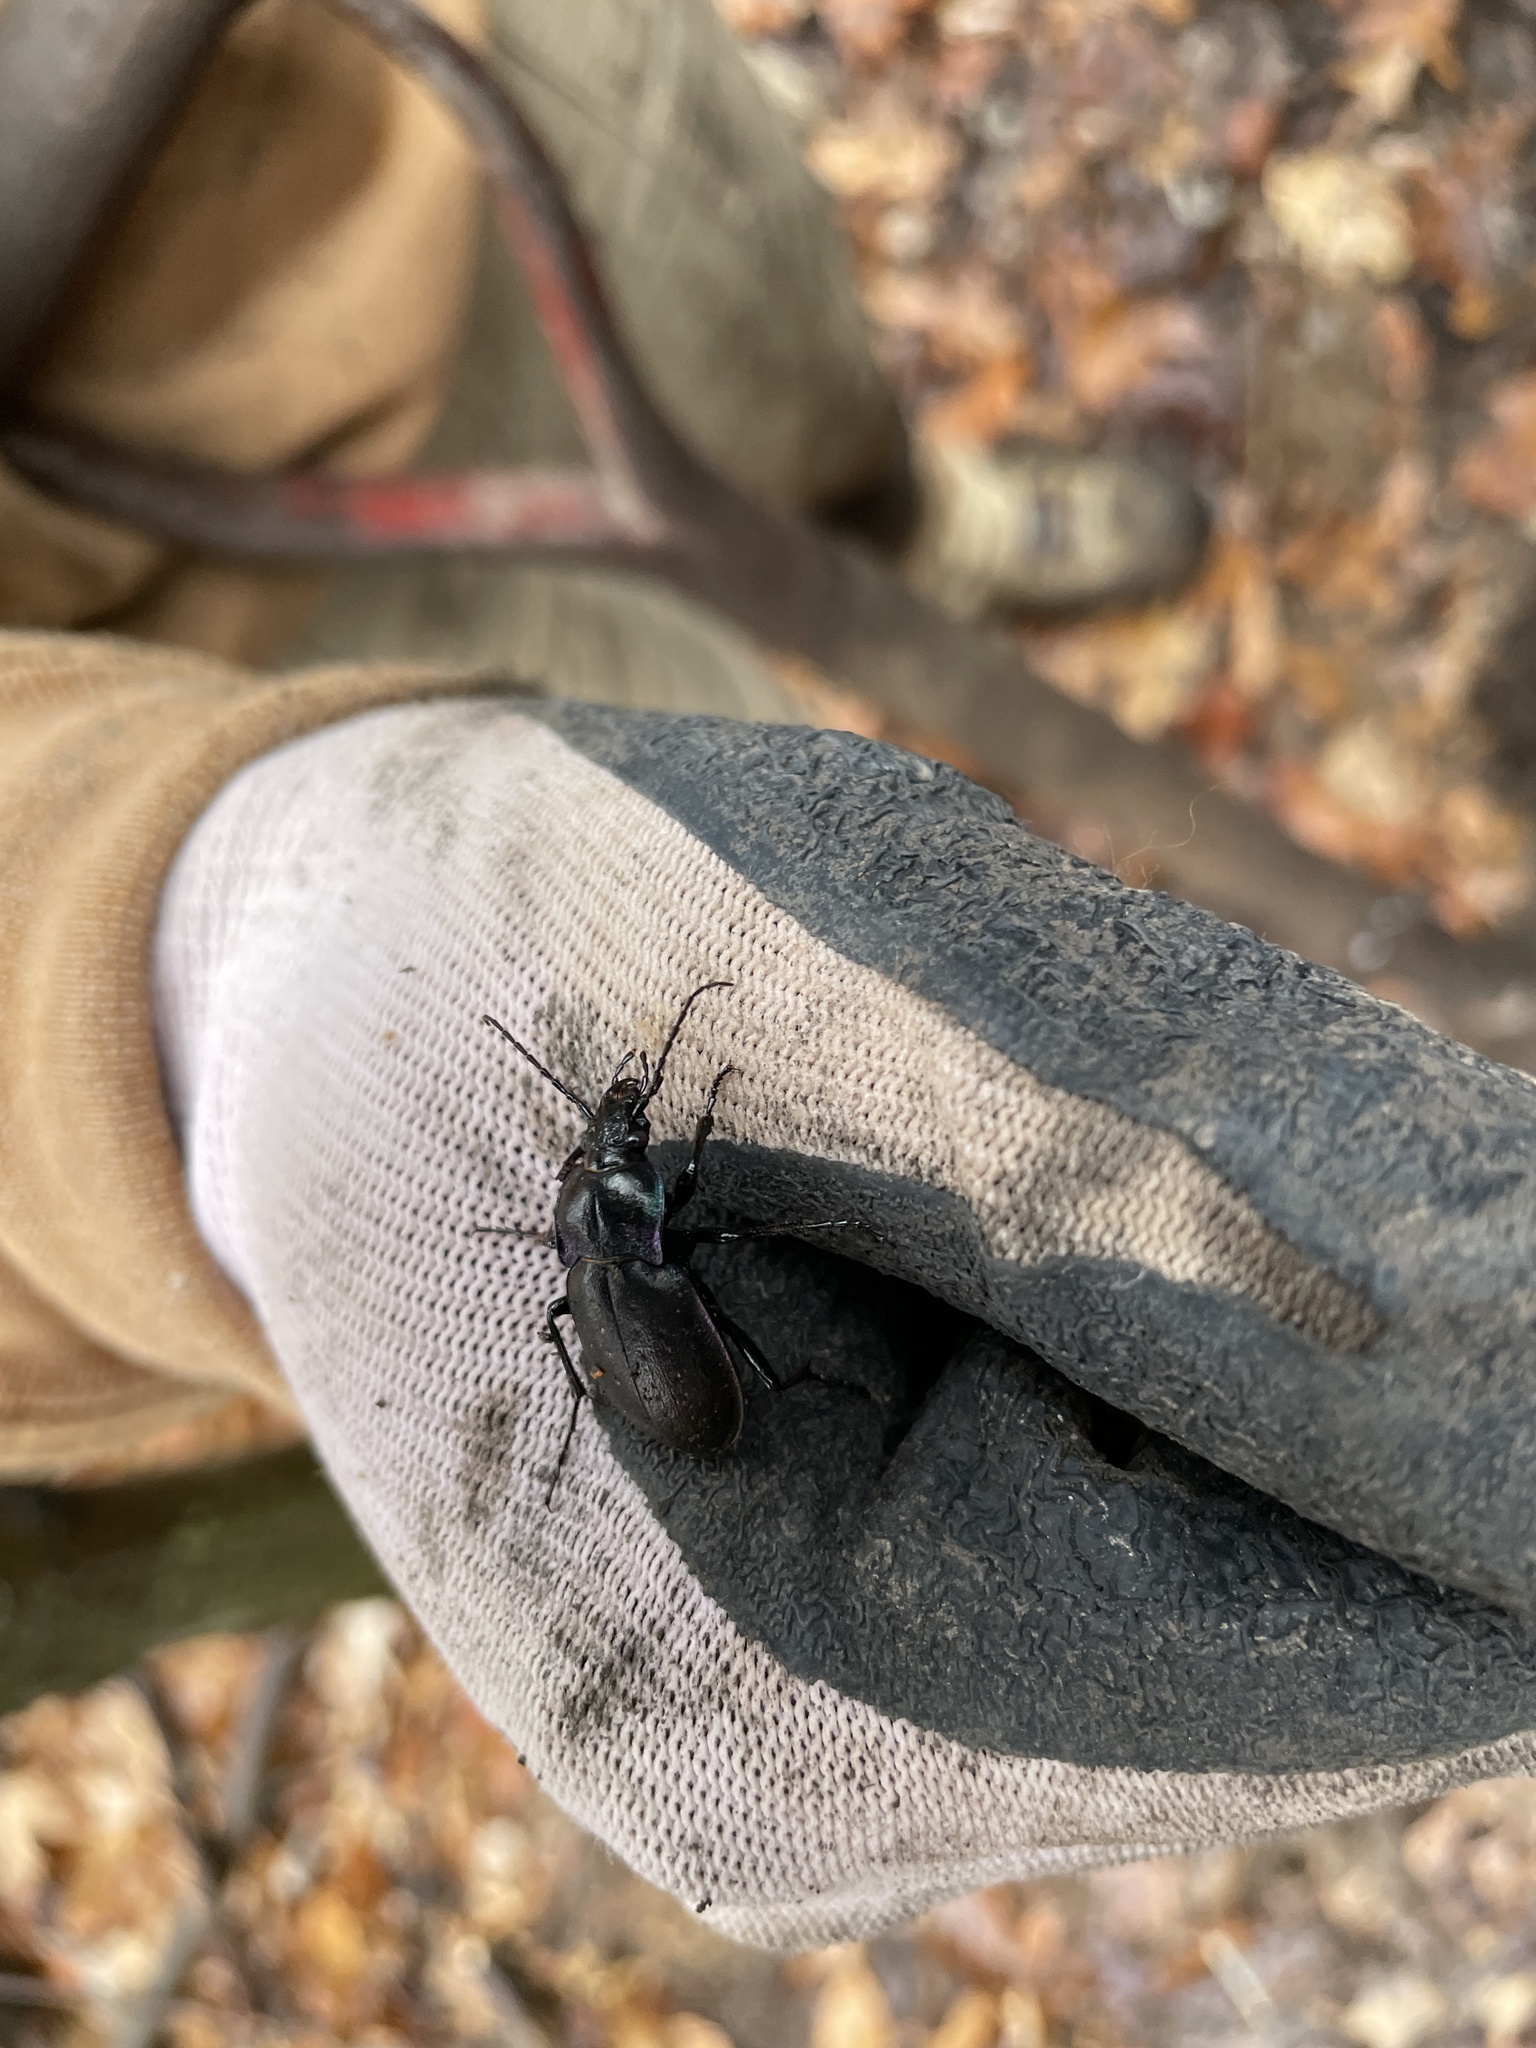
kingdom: Animalia
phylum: Arthropoda
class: Insecta
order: Coleoptera
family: Carabidae
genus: Carabus
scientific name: Carabus nemoralis
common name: European ground beetle
